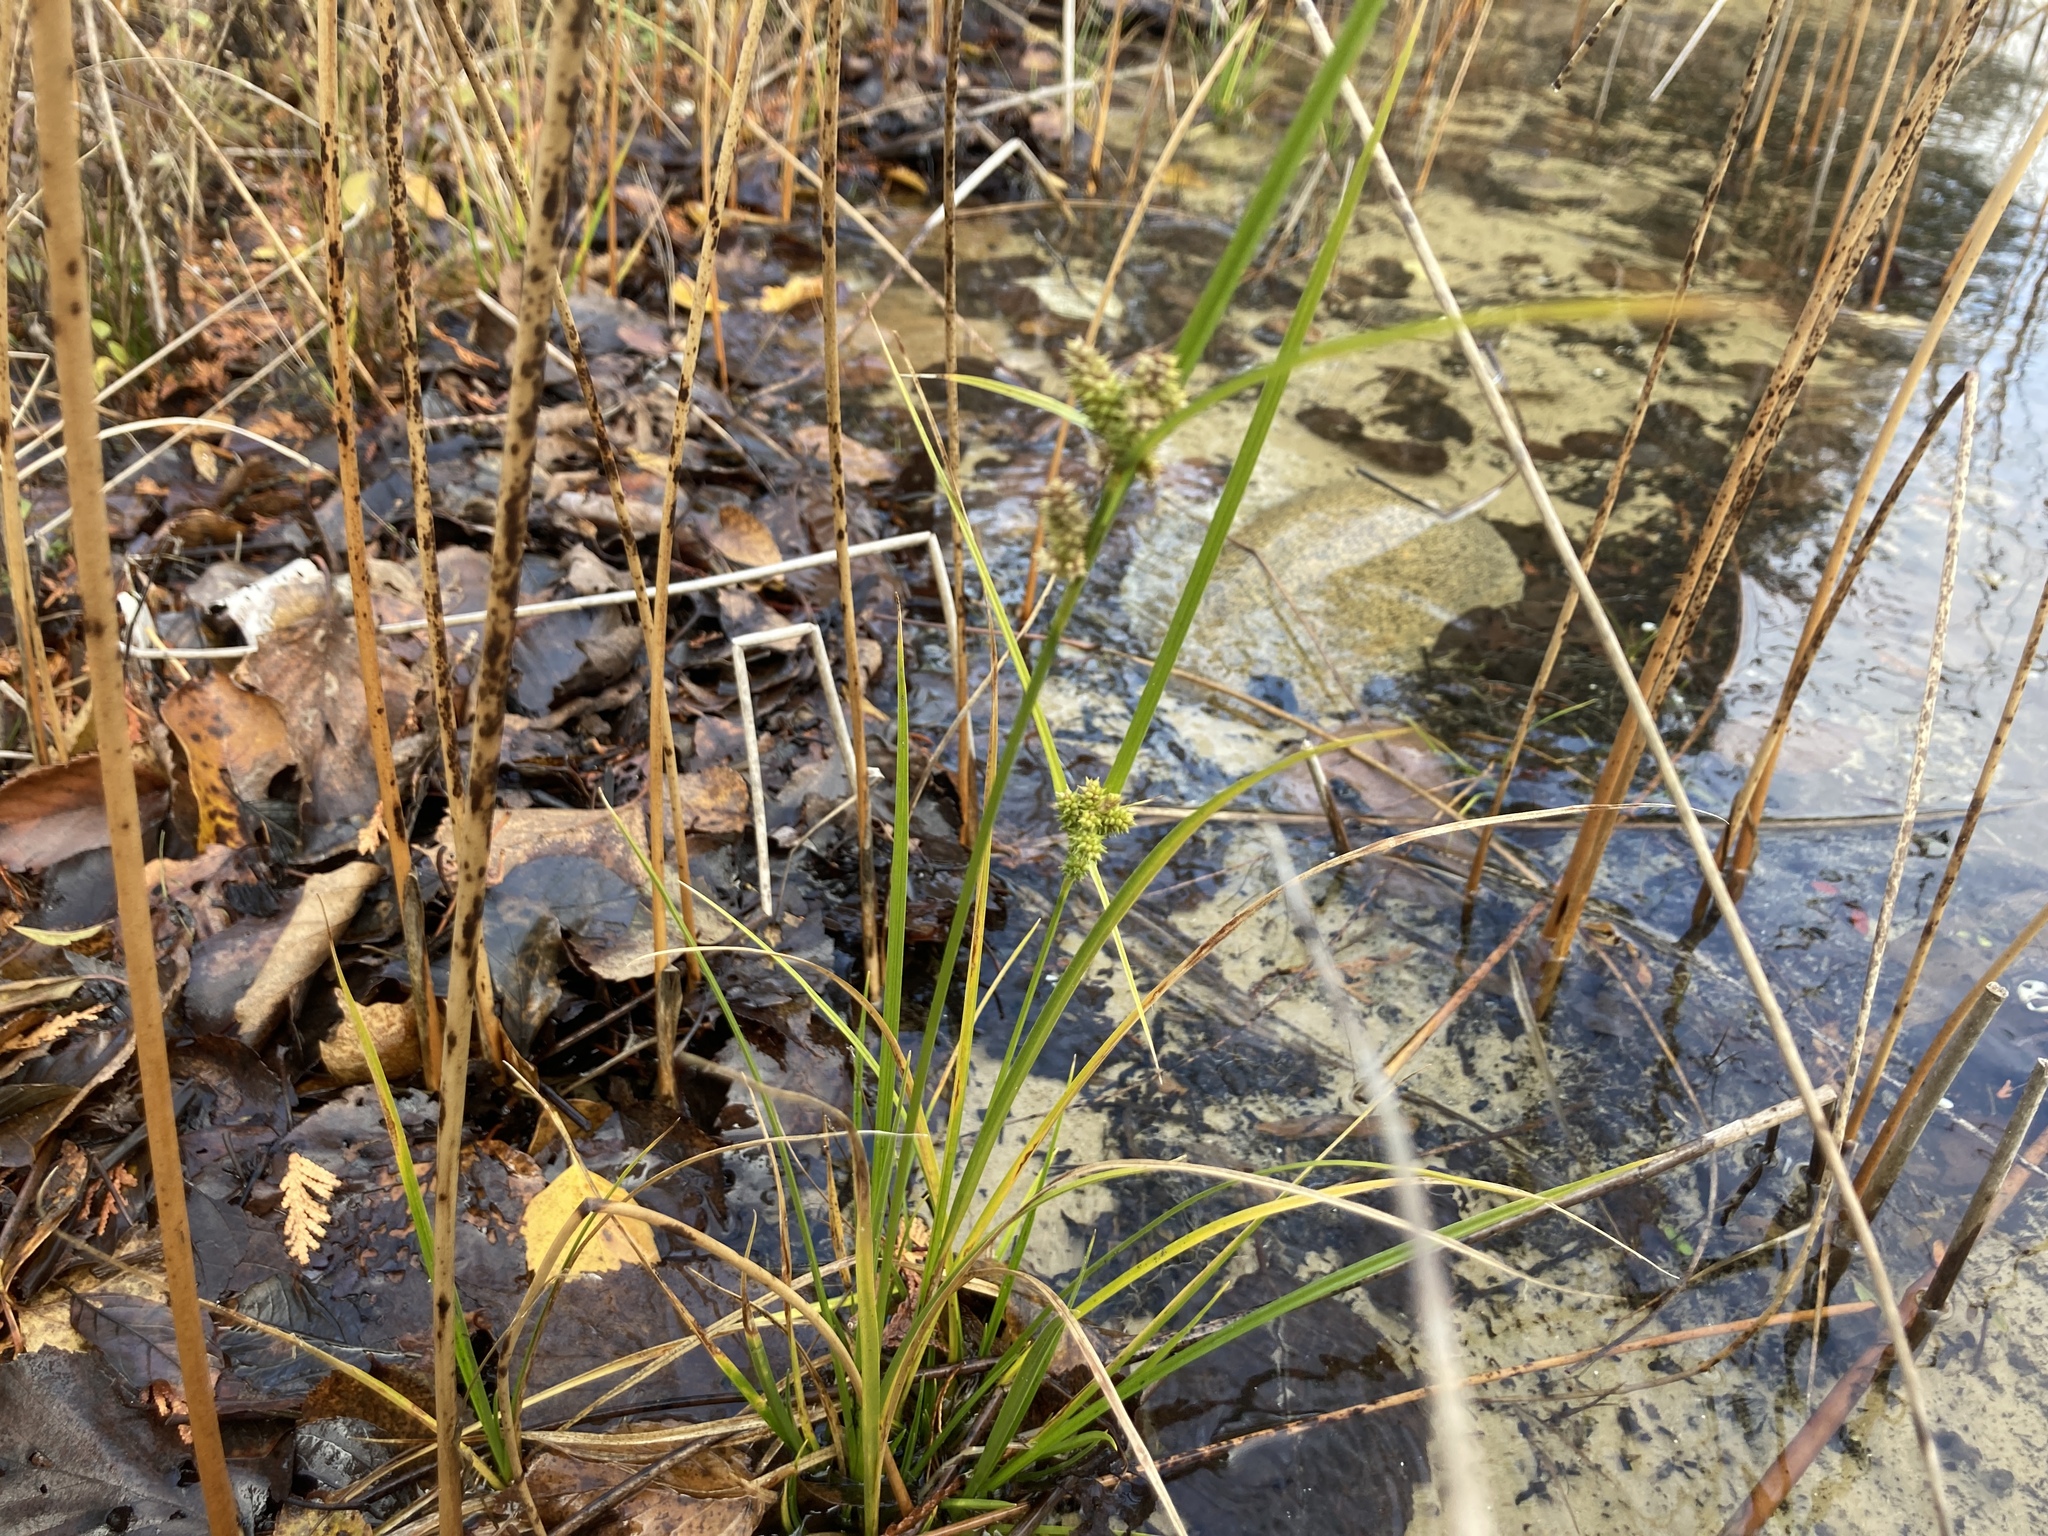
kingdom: Plantae
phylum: Tracheophyta
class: Liliopsida
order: Poales
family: Cyperaceae
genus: Carex
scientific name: Carex
